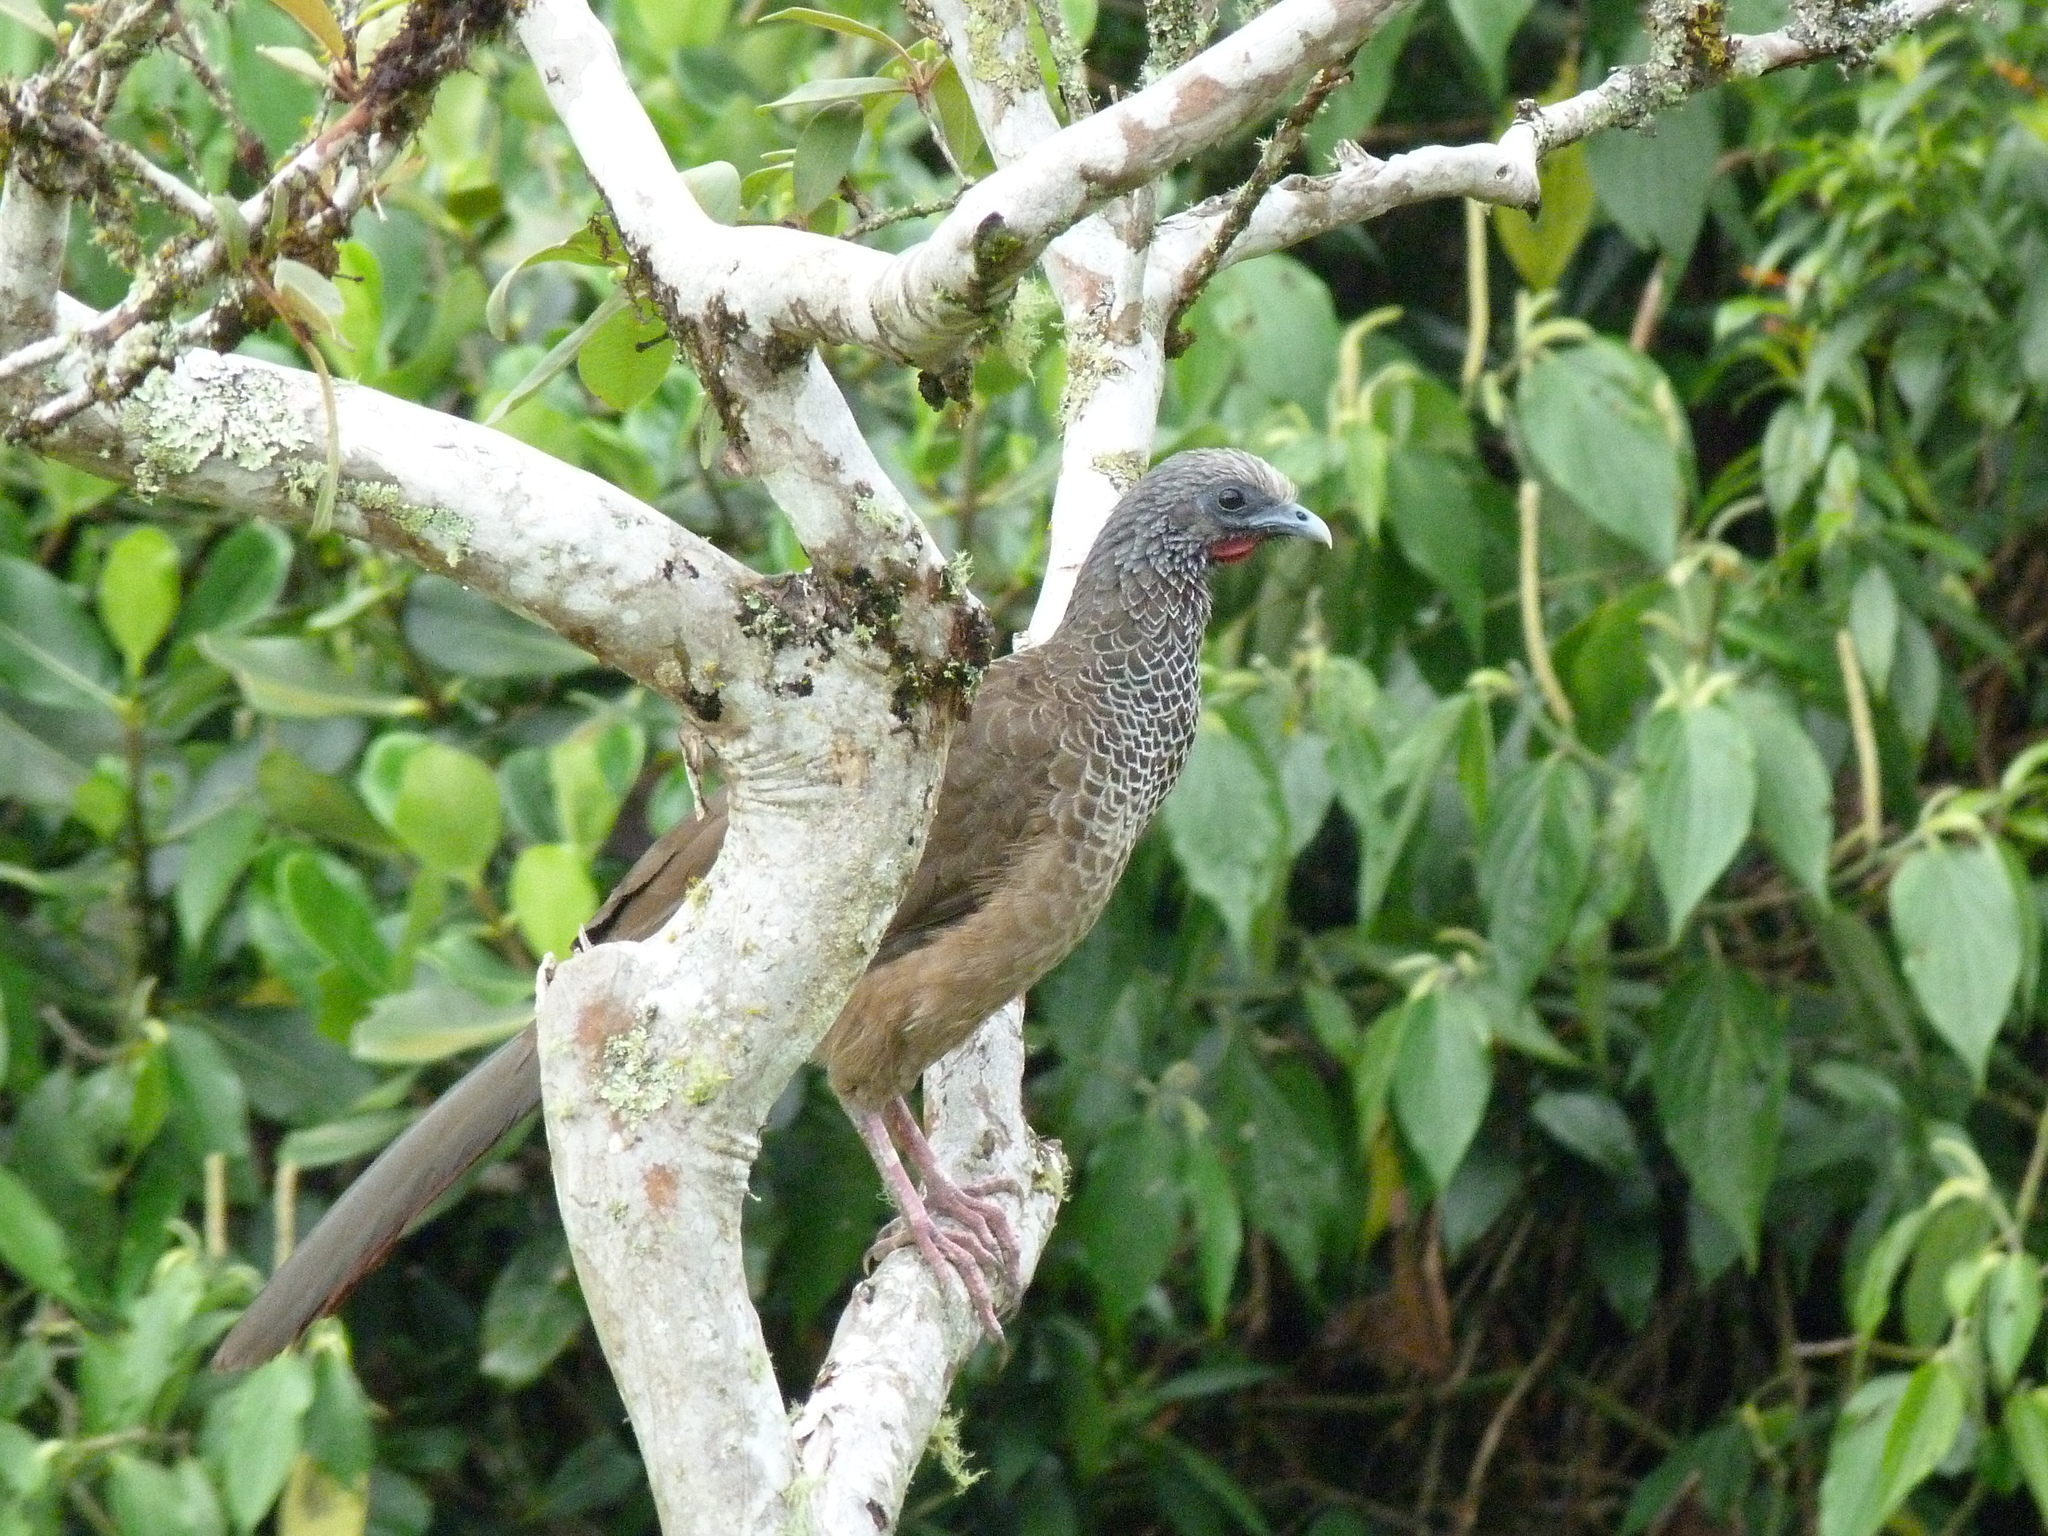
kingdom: Animalia
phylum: Chordata
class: Aves
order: Galliformes
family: Cracidae
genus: Ortalis
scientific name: Ortalis columbiana
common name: Colombian chachalaca
